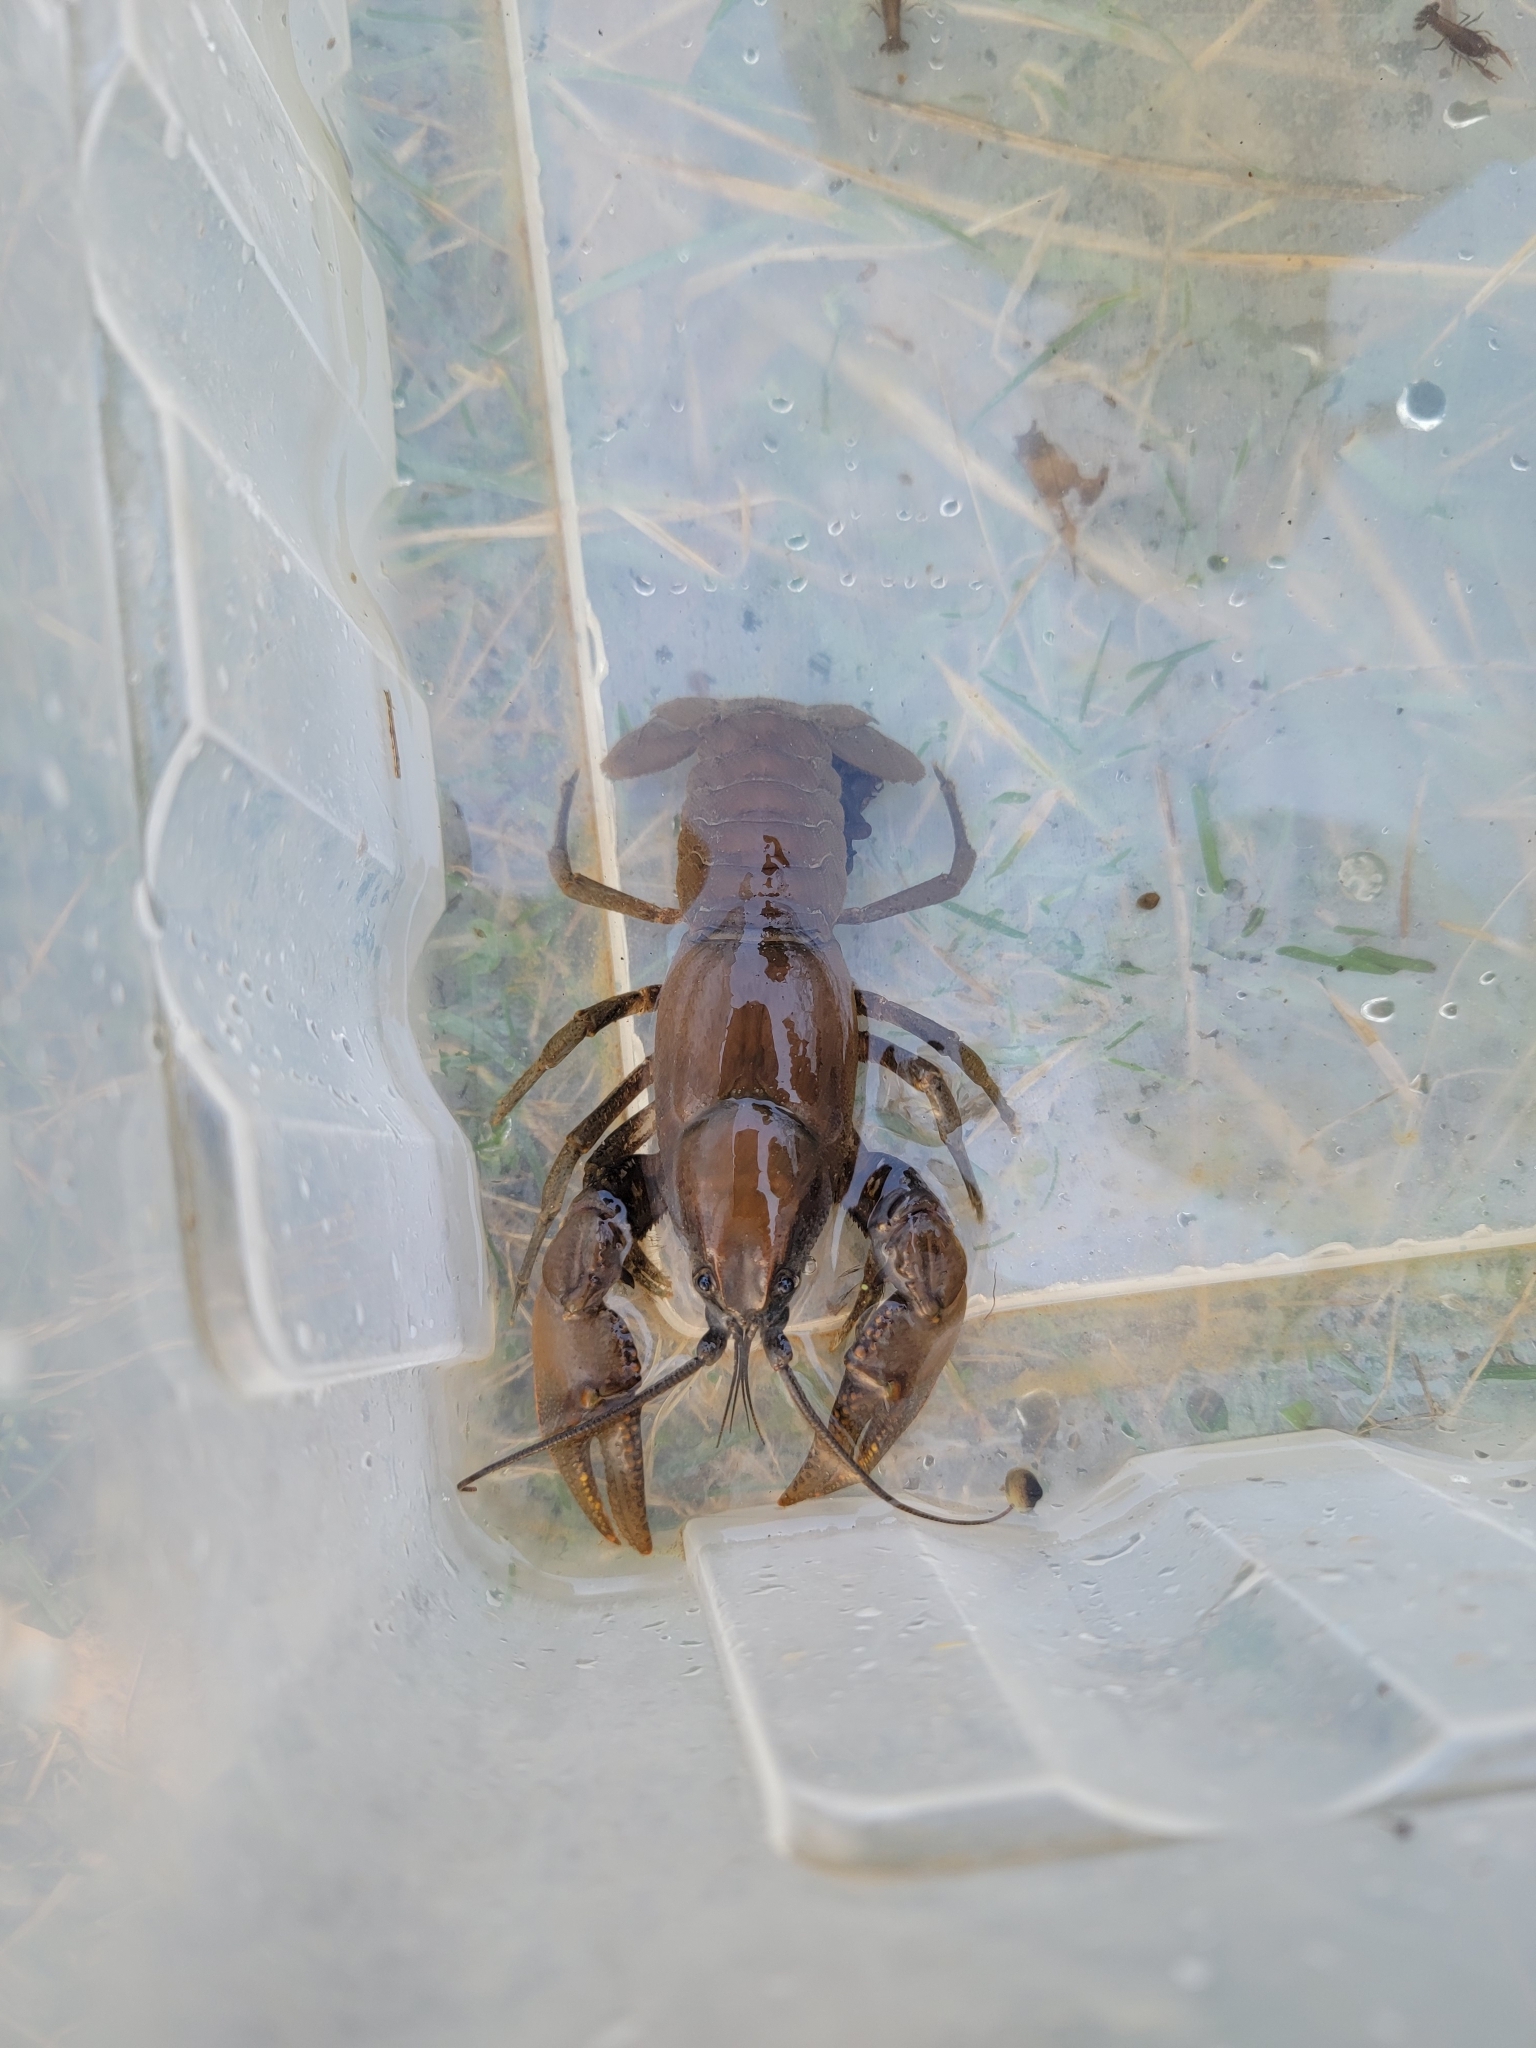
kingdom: Animalia
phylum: Arthropoda
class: Malacostraca
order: Decapoda
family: Cambaridae
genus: Cambarus
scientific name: Cambarus bartonii
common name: Appalachian brook crayfish
